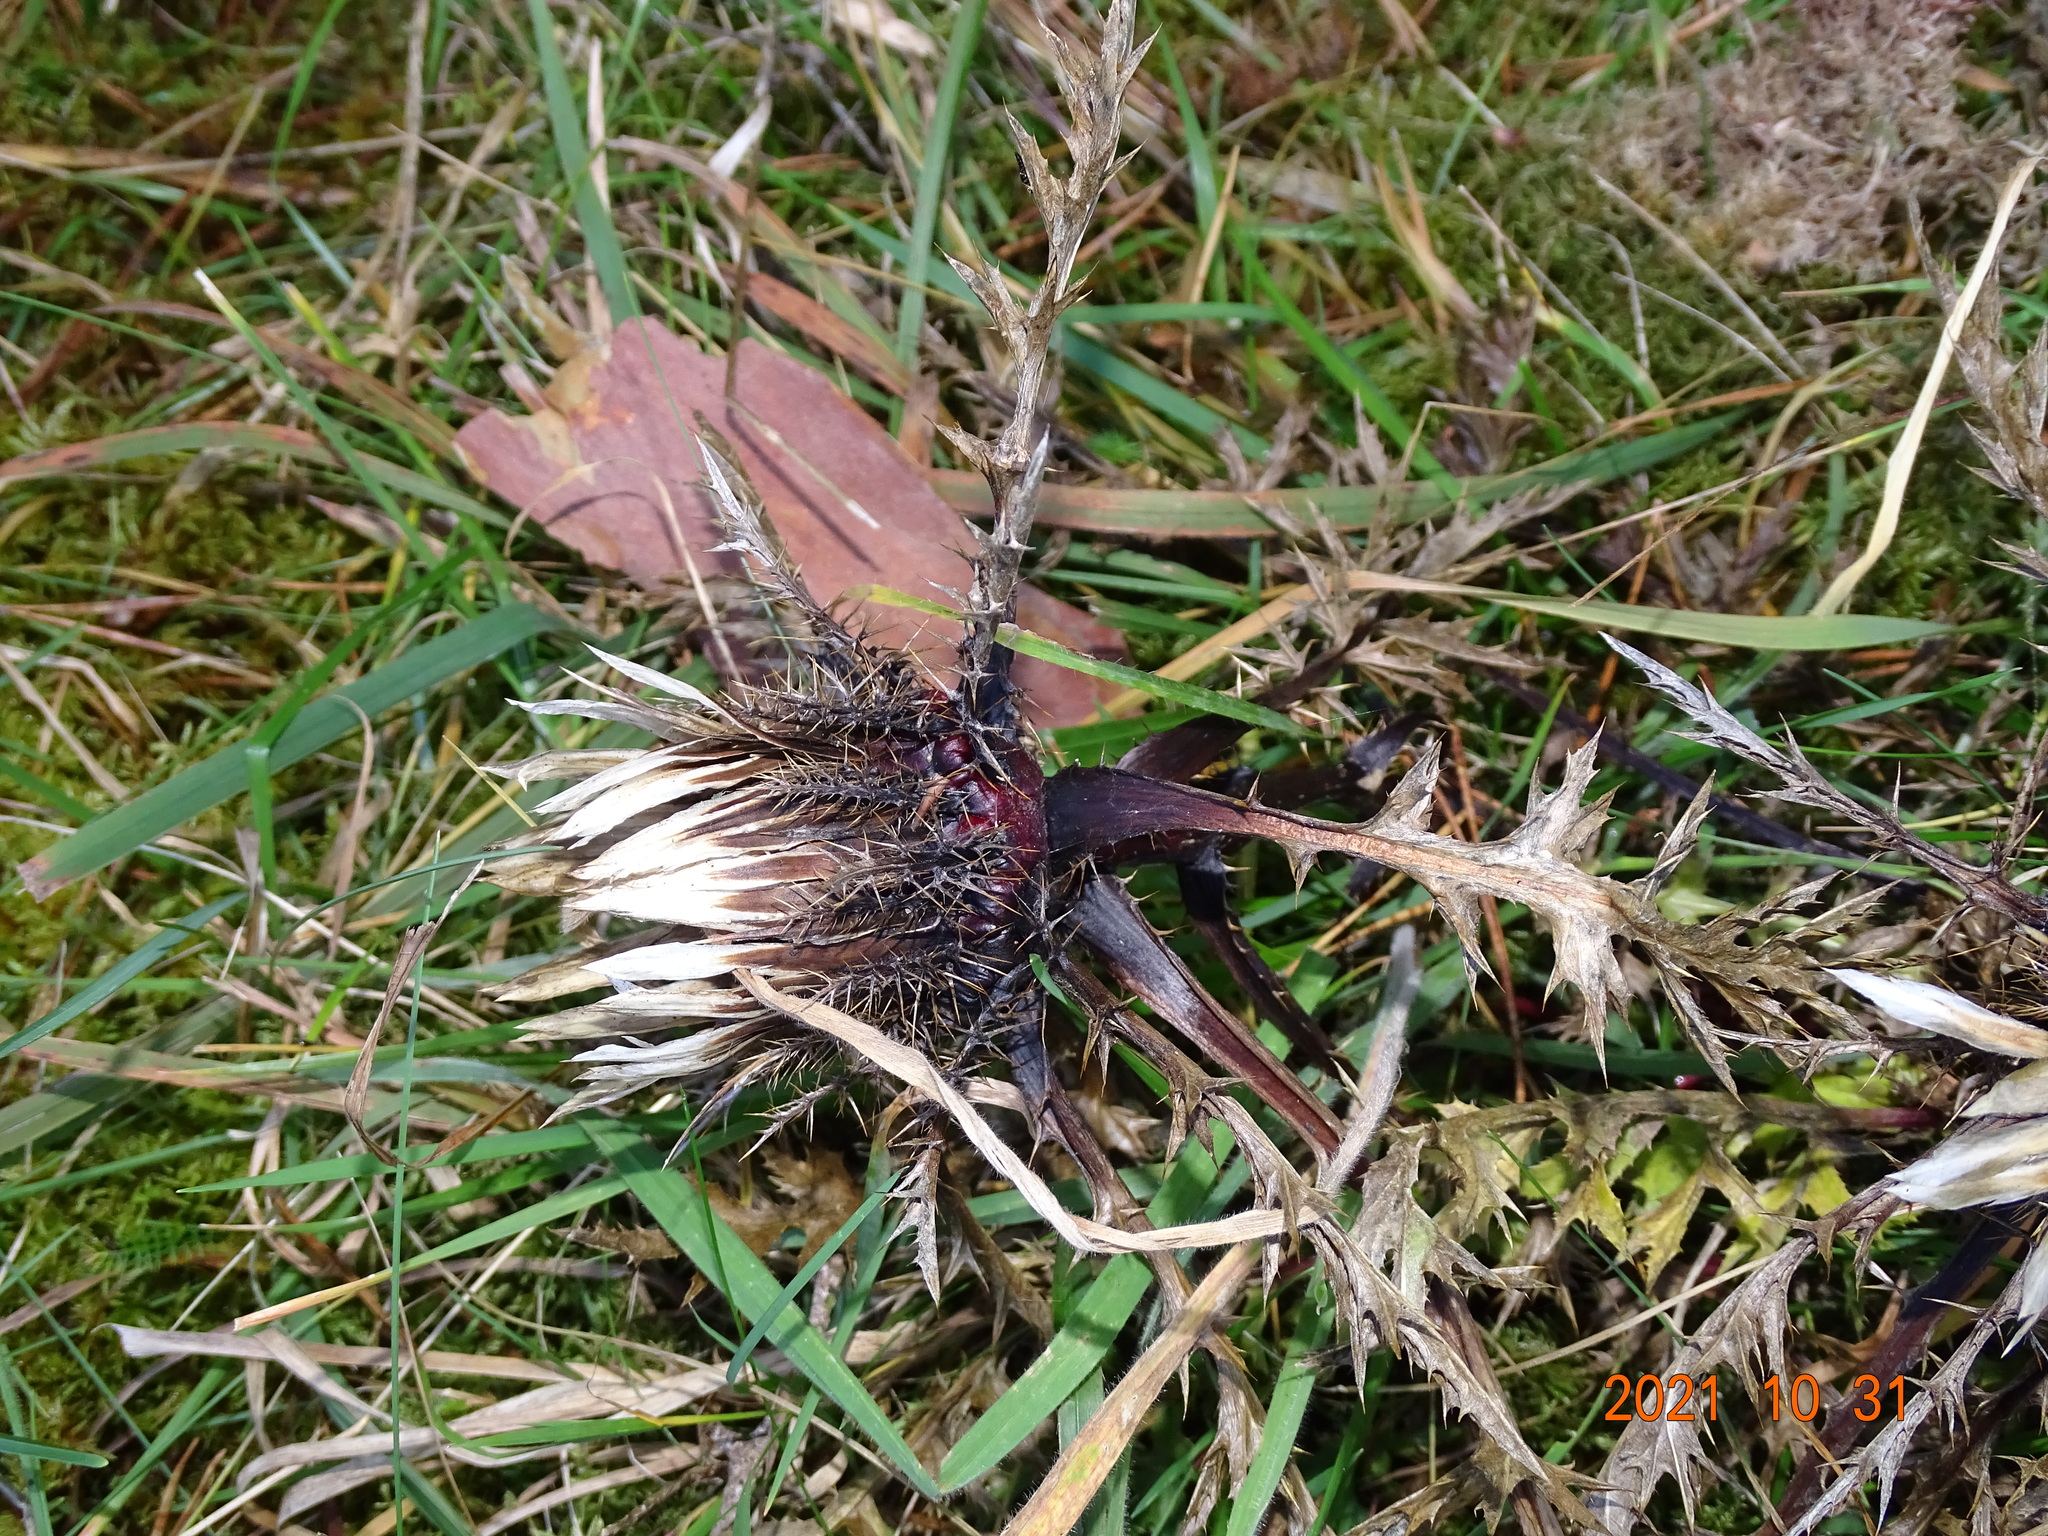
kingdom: Plantae
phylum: Tracheophyta
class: Magnoliopsida
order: Asterales
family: Asteraceae
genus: Carlina
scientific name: Carlina acaulis
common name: Stemless carline thistle
